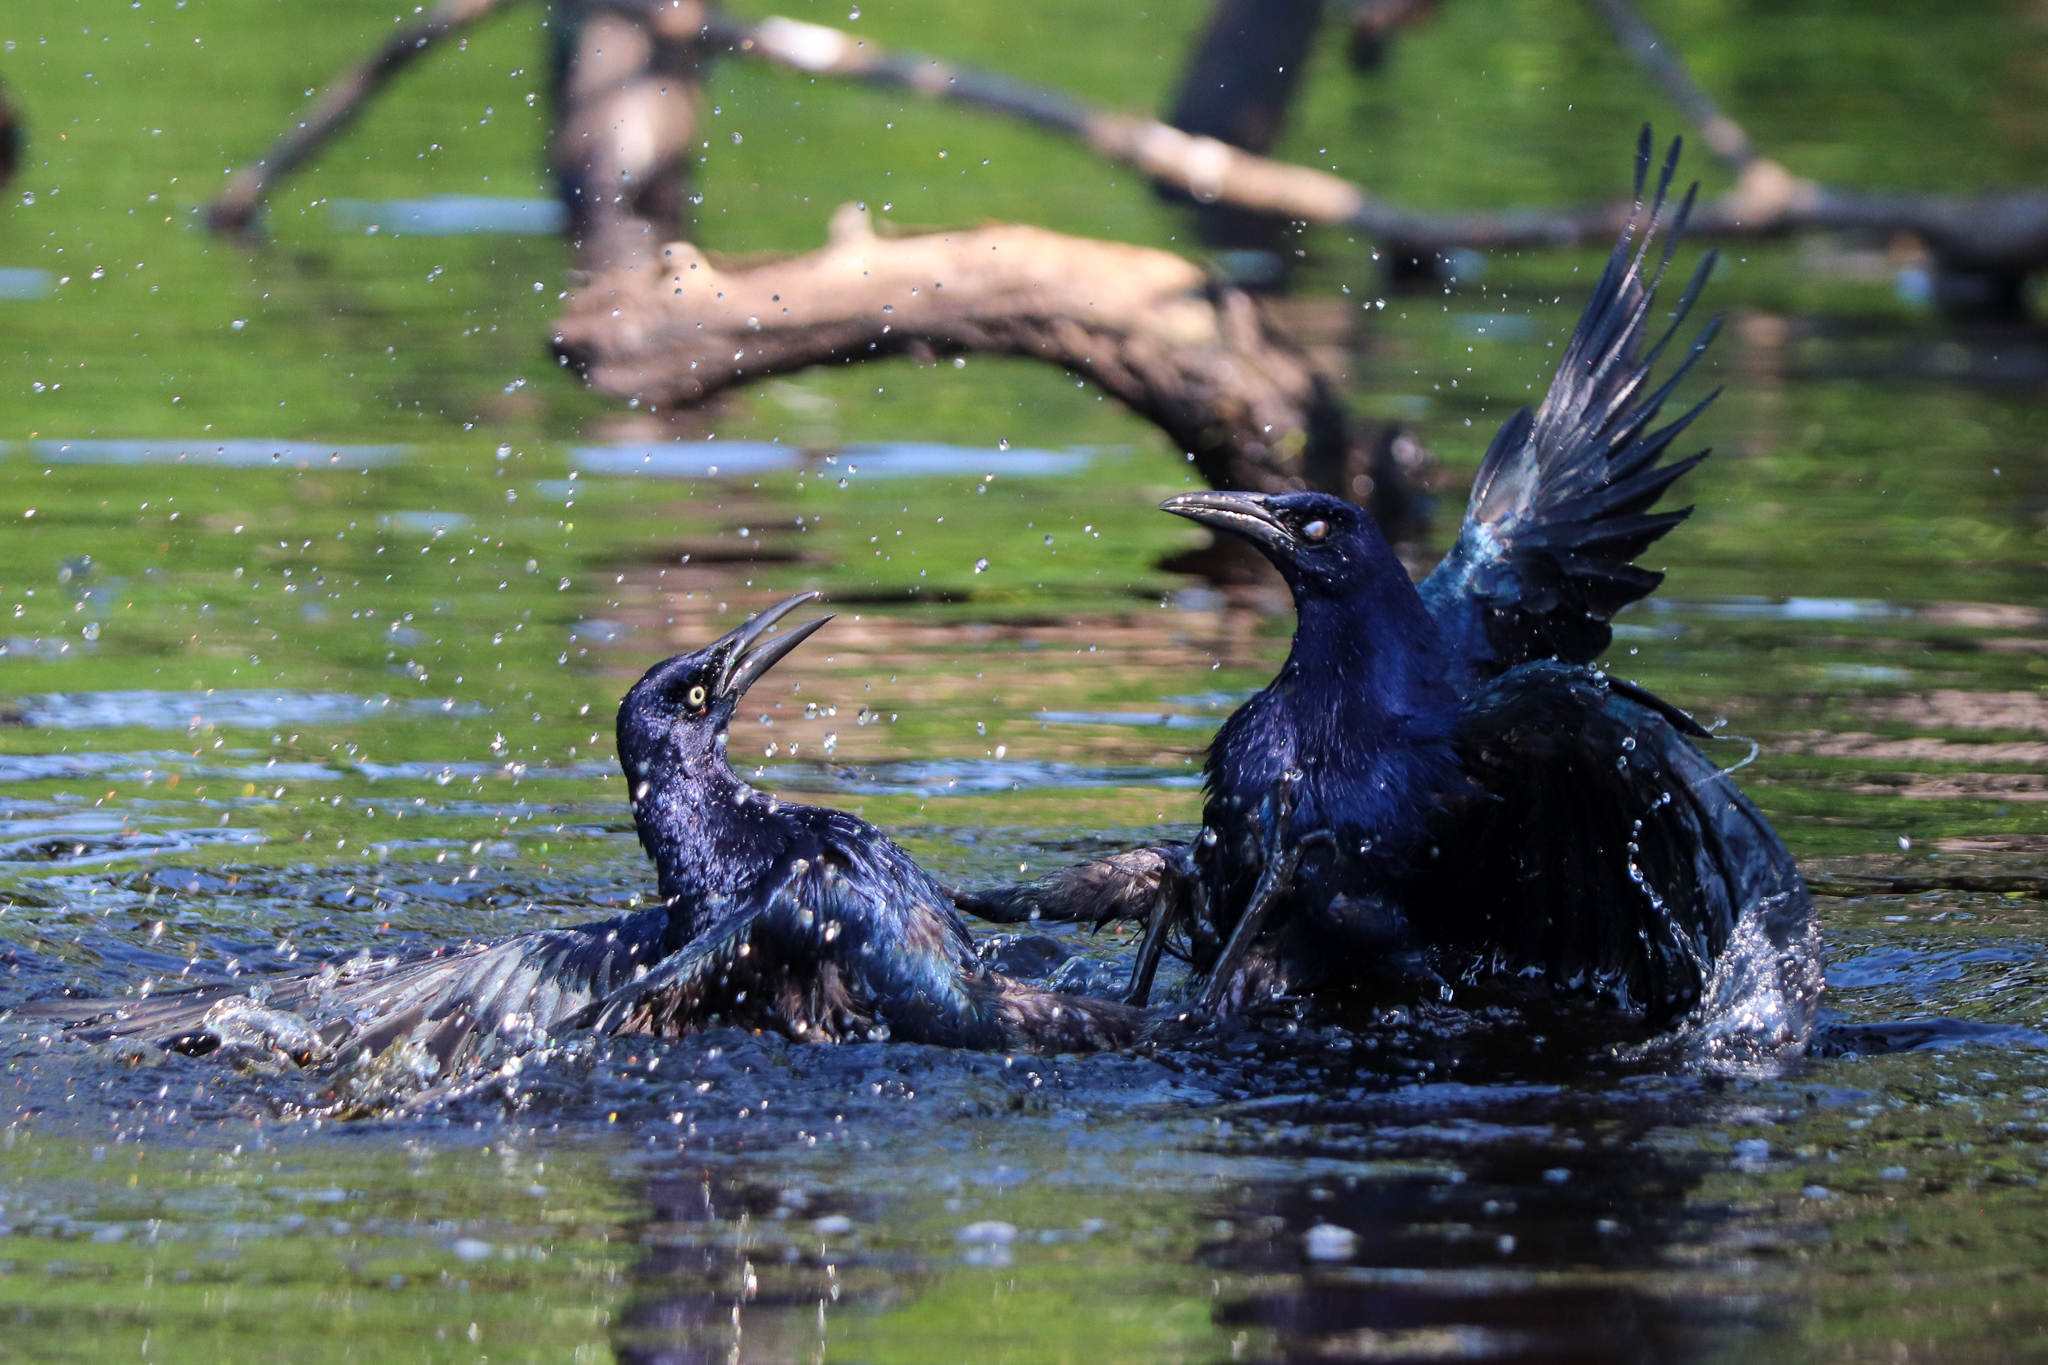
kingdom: Animalia
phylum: Chordata
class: Aves
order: Passeriformes
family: Icteridae
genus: Quiscalus
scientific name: Quiscalus mexicanus
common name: Great-tailed grackle
